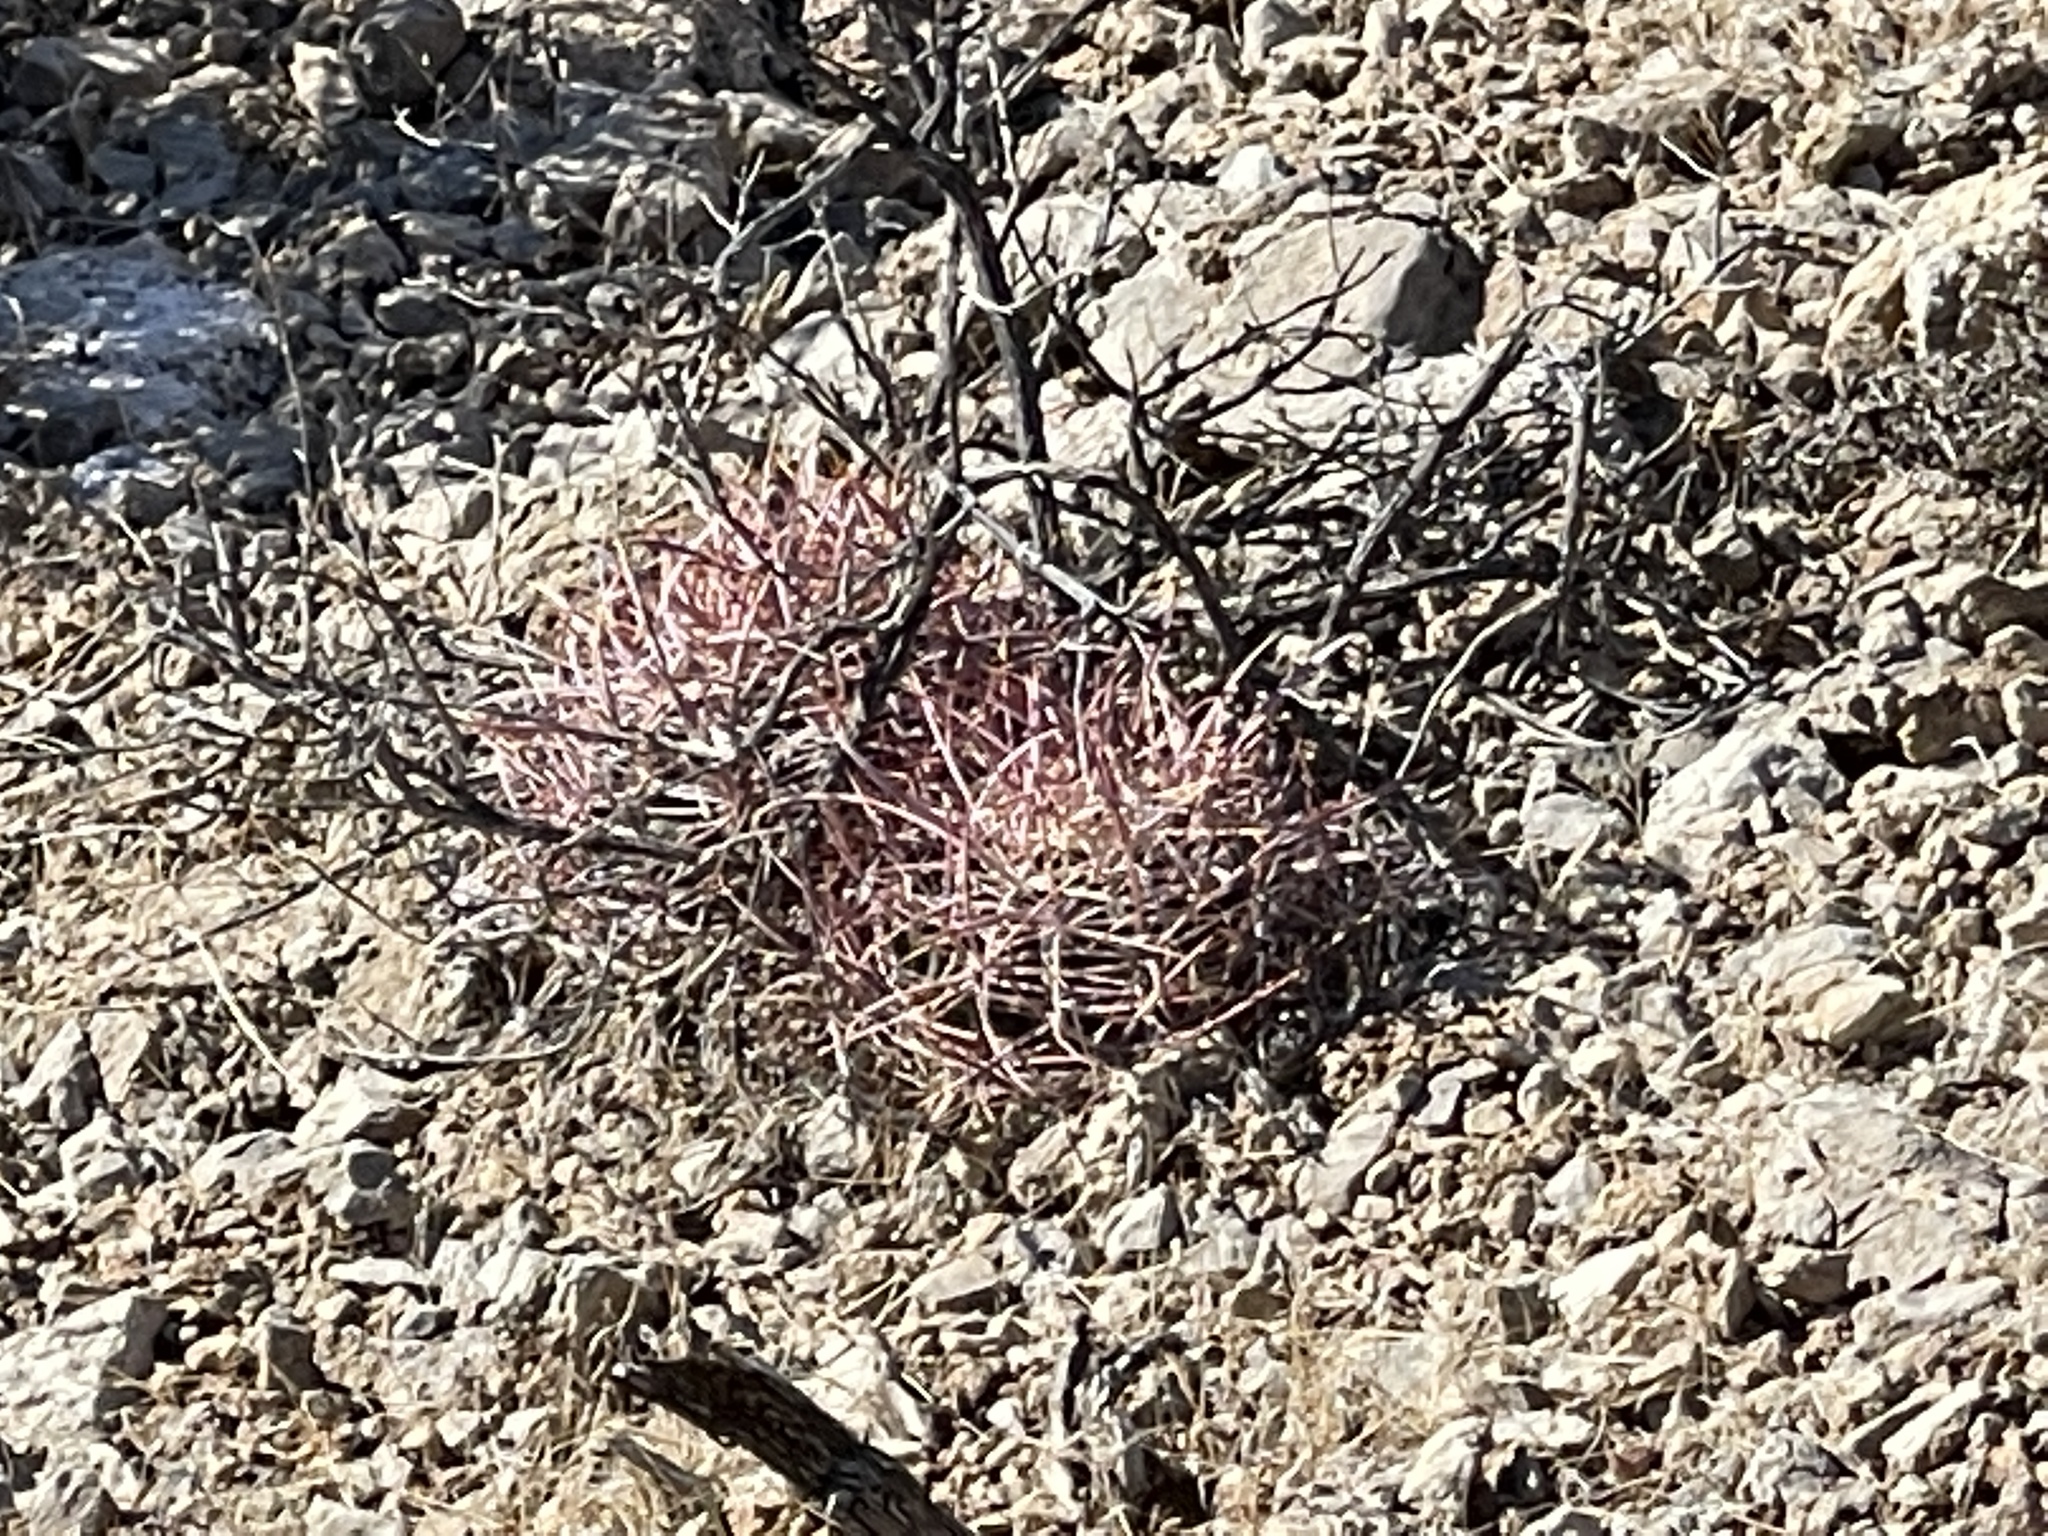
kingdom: Plantae
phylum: Tracheophyta
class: Magnoliopsida
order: Caryophyllales
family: Cactaceae
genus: Ferocactus
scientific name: Ferocactus cylindraceus
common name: California barrel cactus
